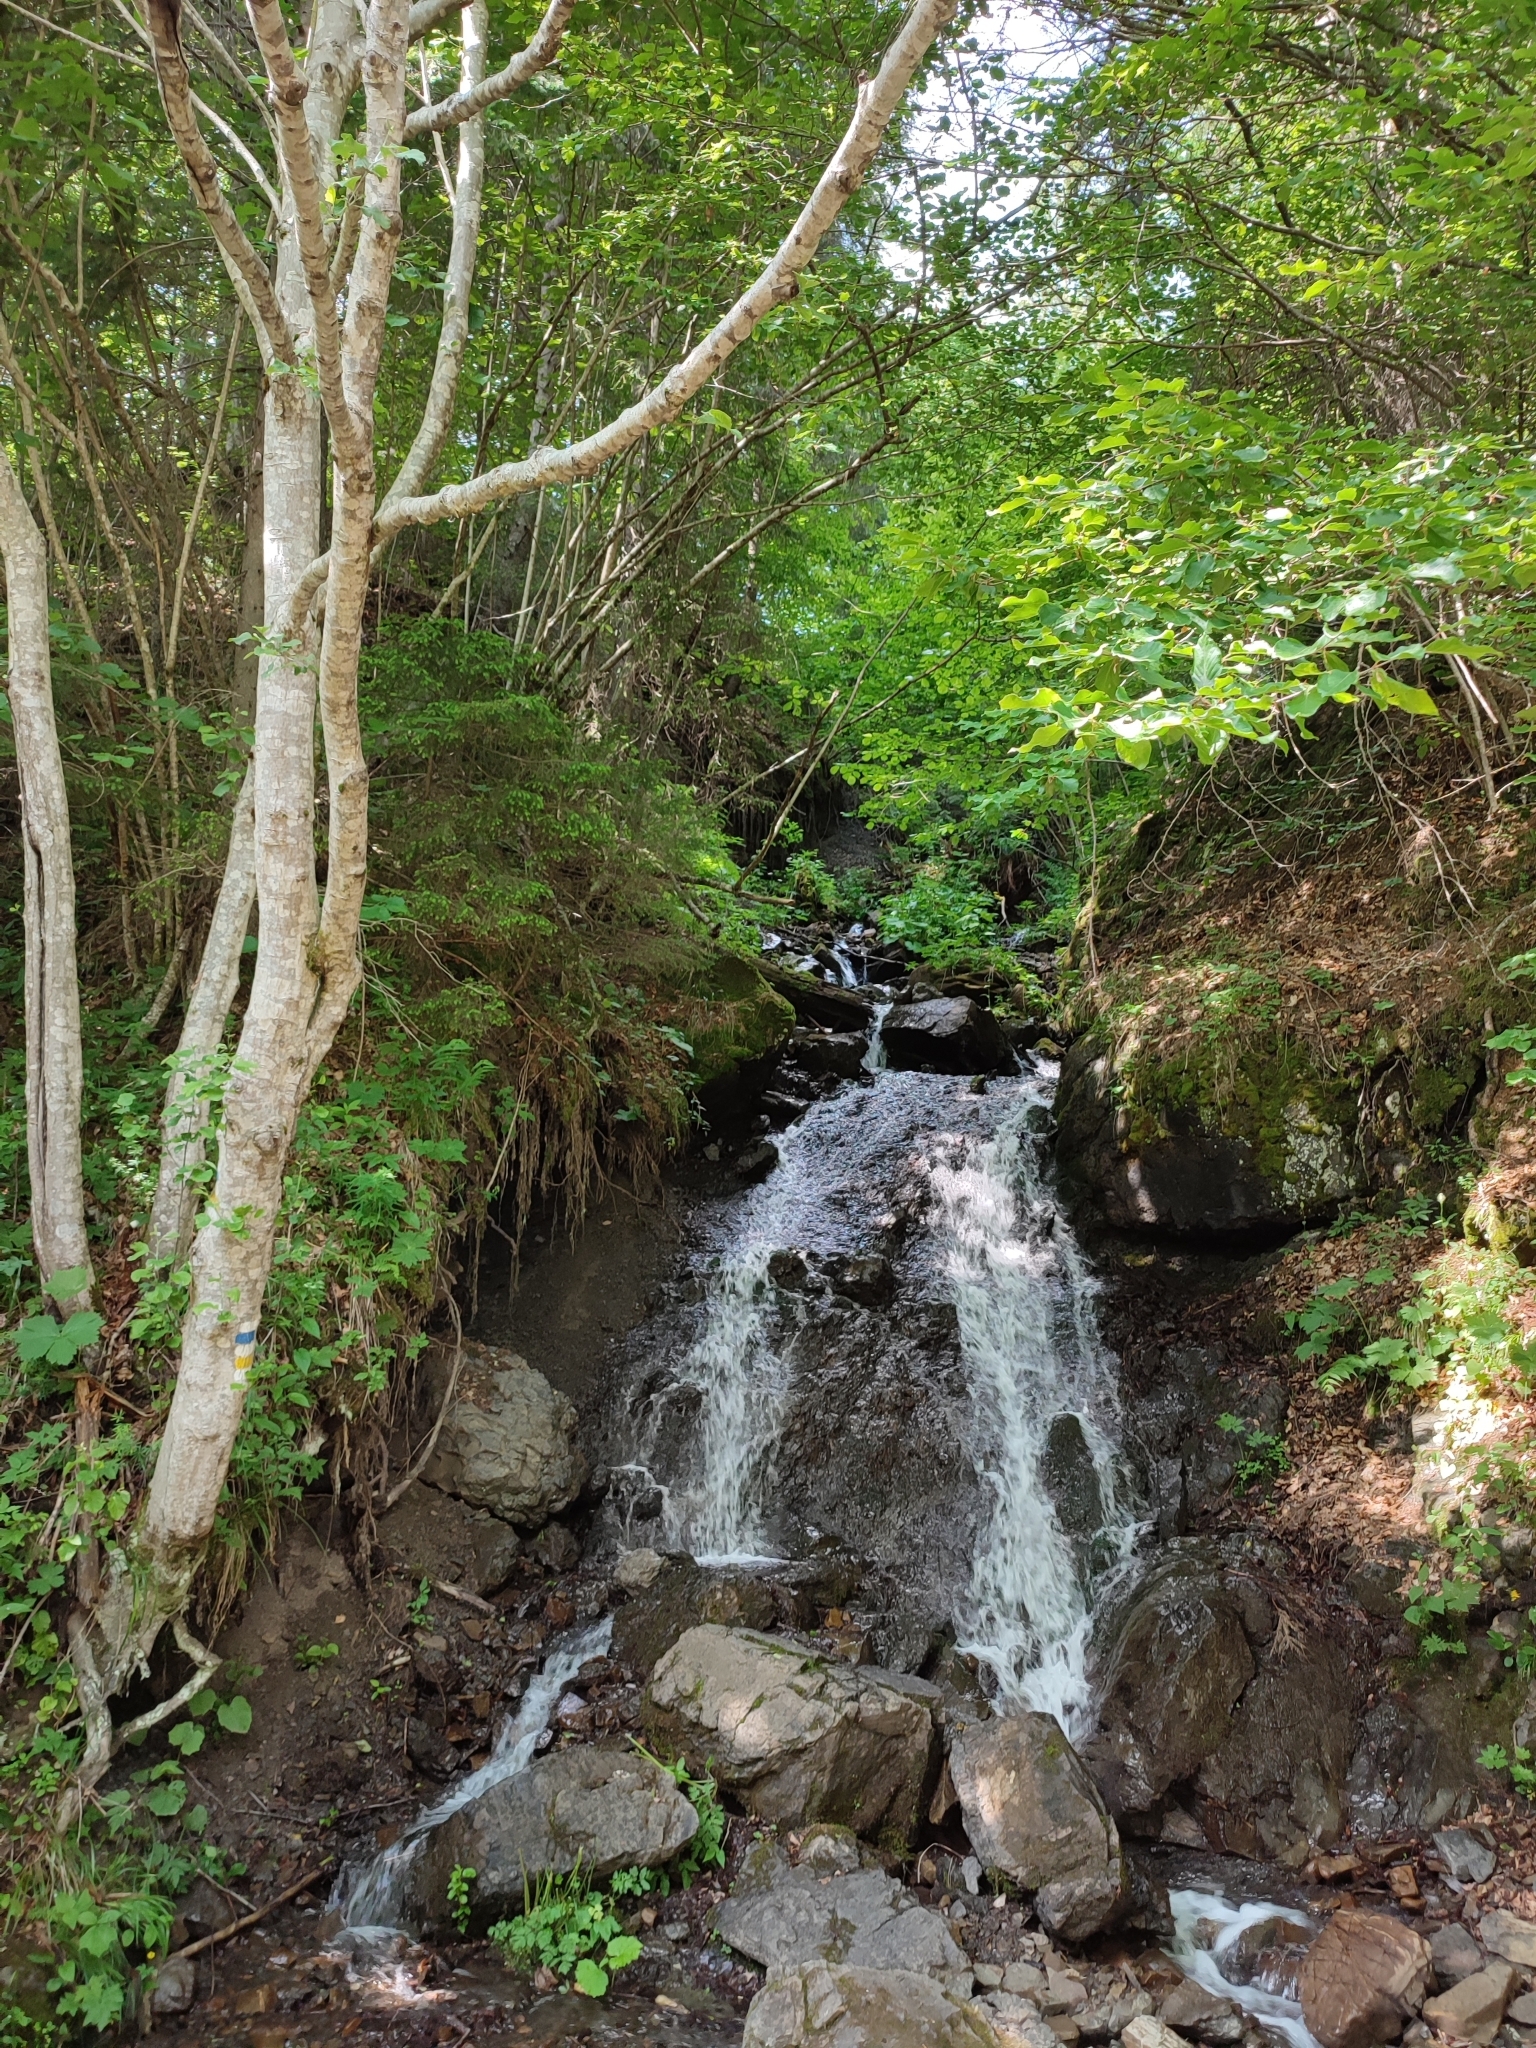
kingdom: Plantae
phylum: Tracheophyta
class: Magnoliopsida
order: Fagales
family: Betulaceae
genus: Alnus
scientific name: Alnus incana
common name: Grey alder
